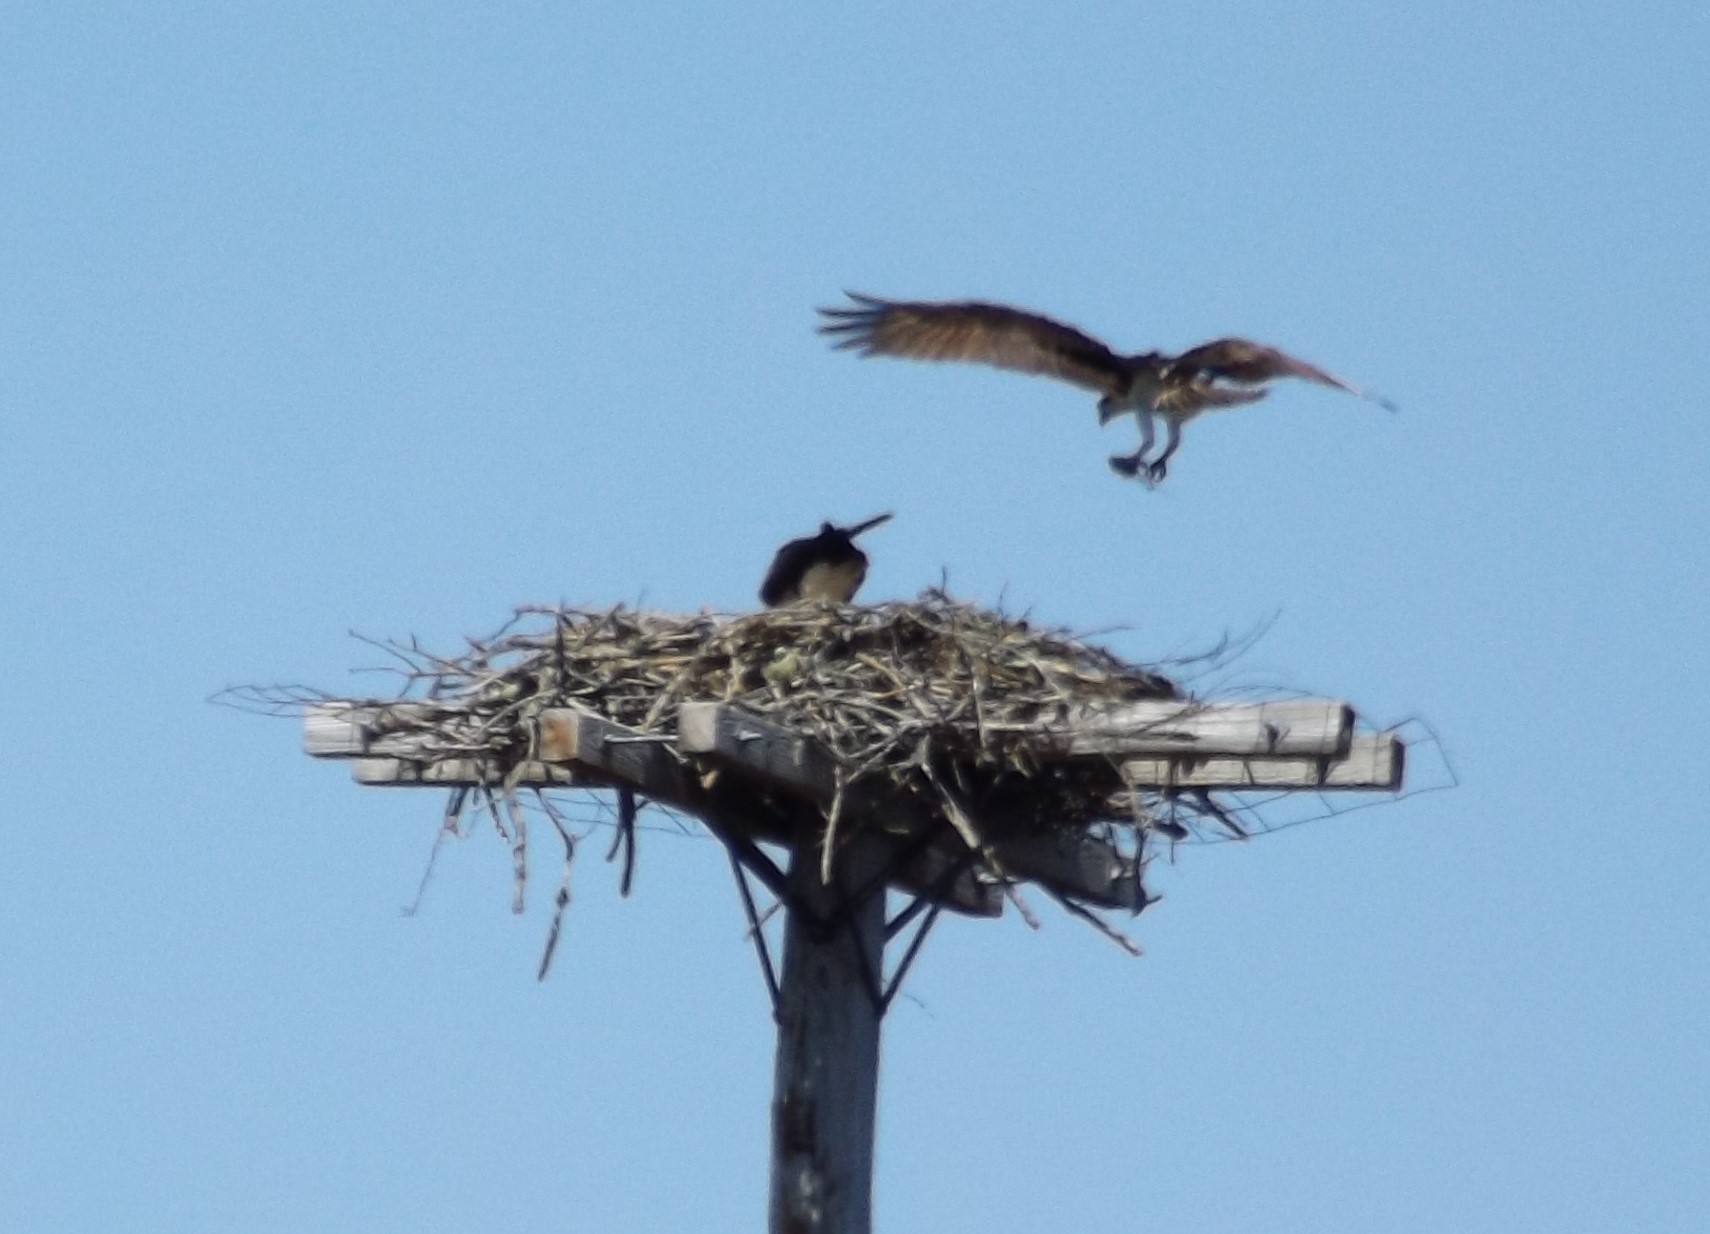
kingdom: Animalia
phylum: Chordata
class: Aves
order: Accipitriformes
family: Pandionidae
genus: Pandion
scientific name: Pandion haliaetus
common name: Osprey
